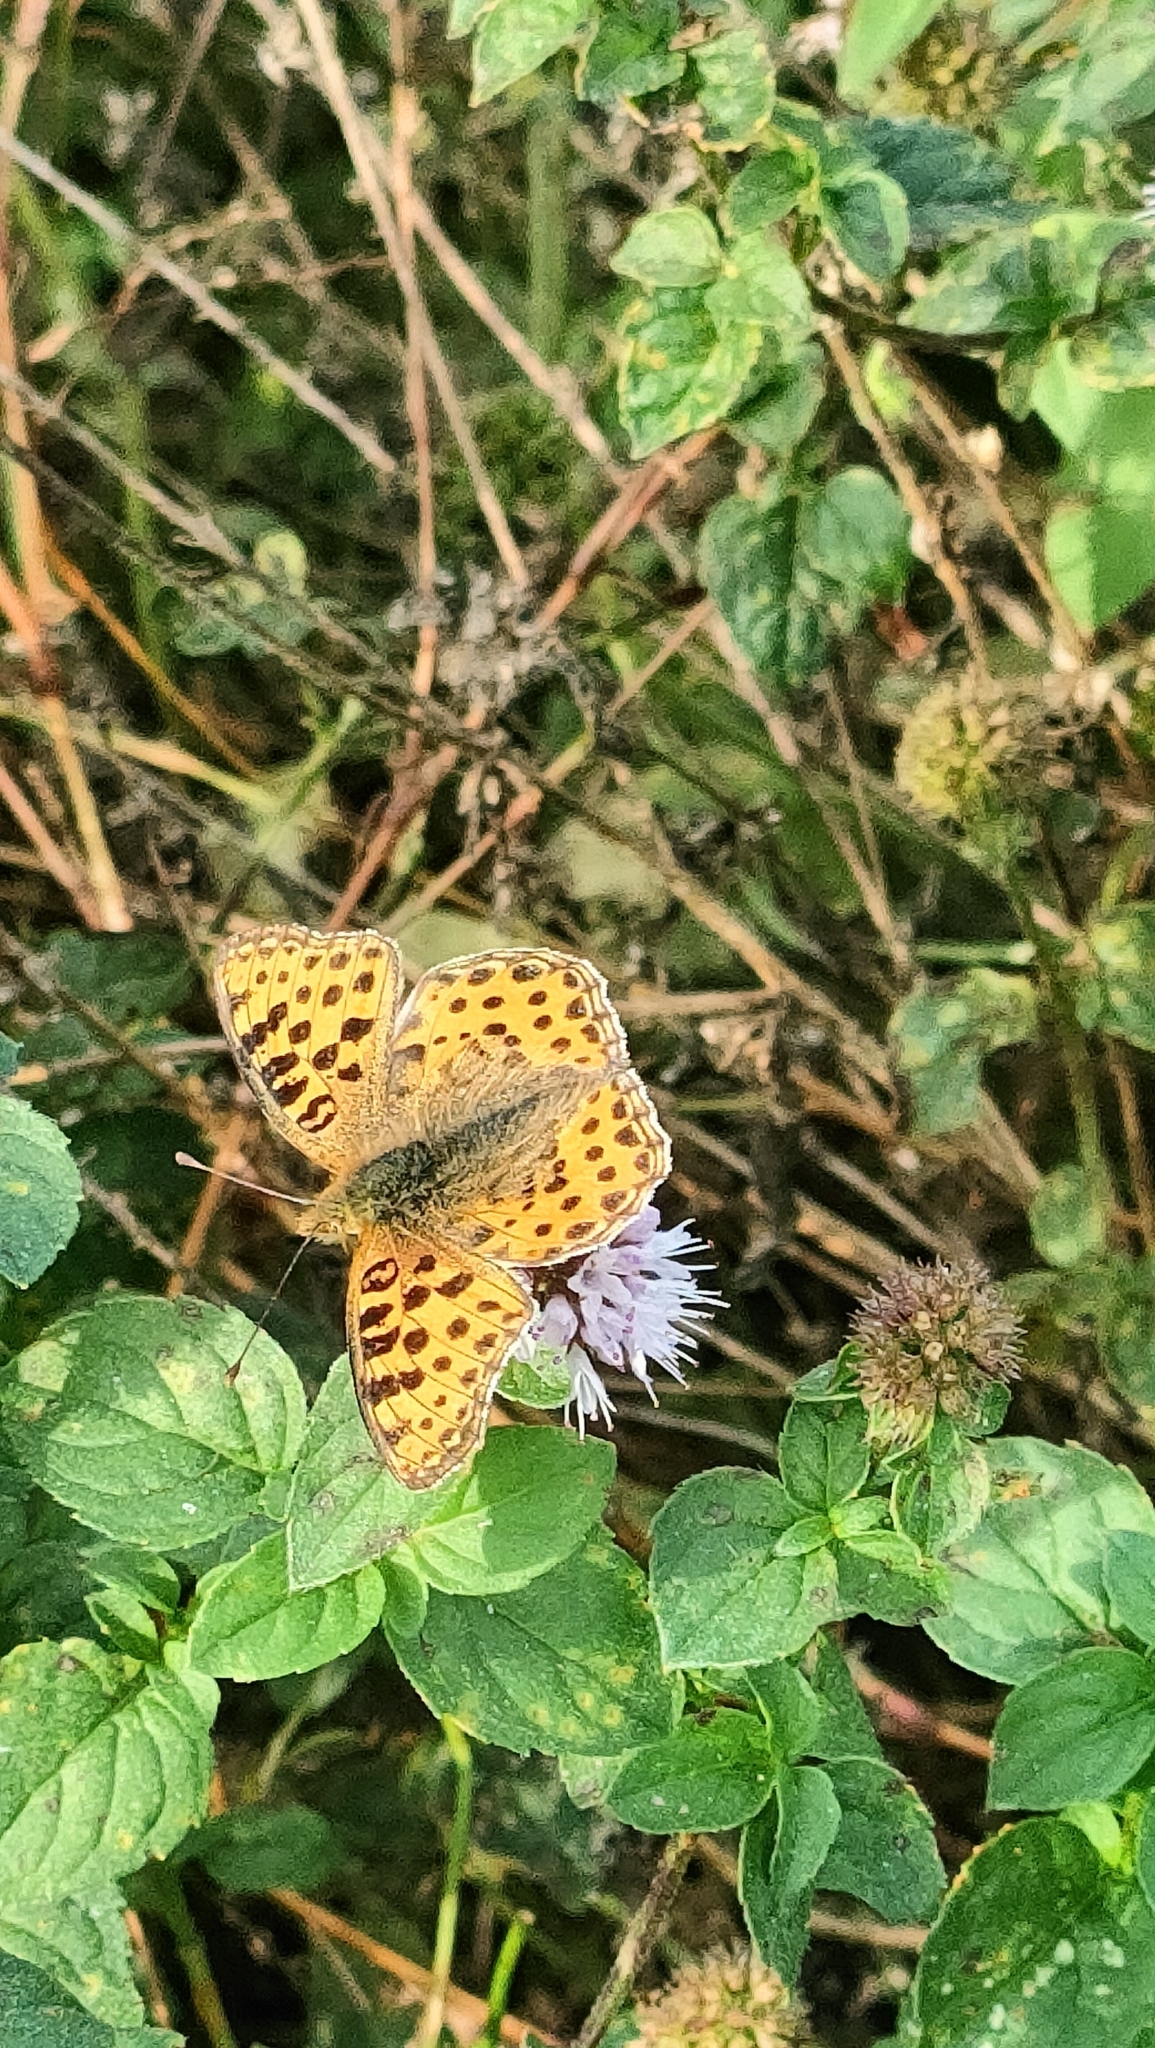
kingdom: Animalia
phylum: Arthropoda
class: Insecta
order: Lepidoptera
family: Nymphalidae
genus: Issoria
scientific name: Issoria lathonia
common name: Queen of spain fritillary
